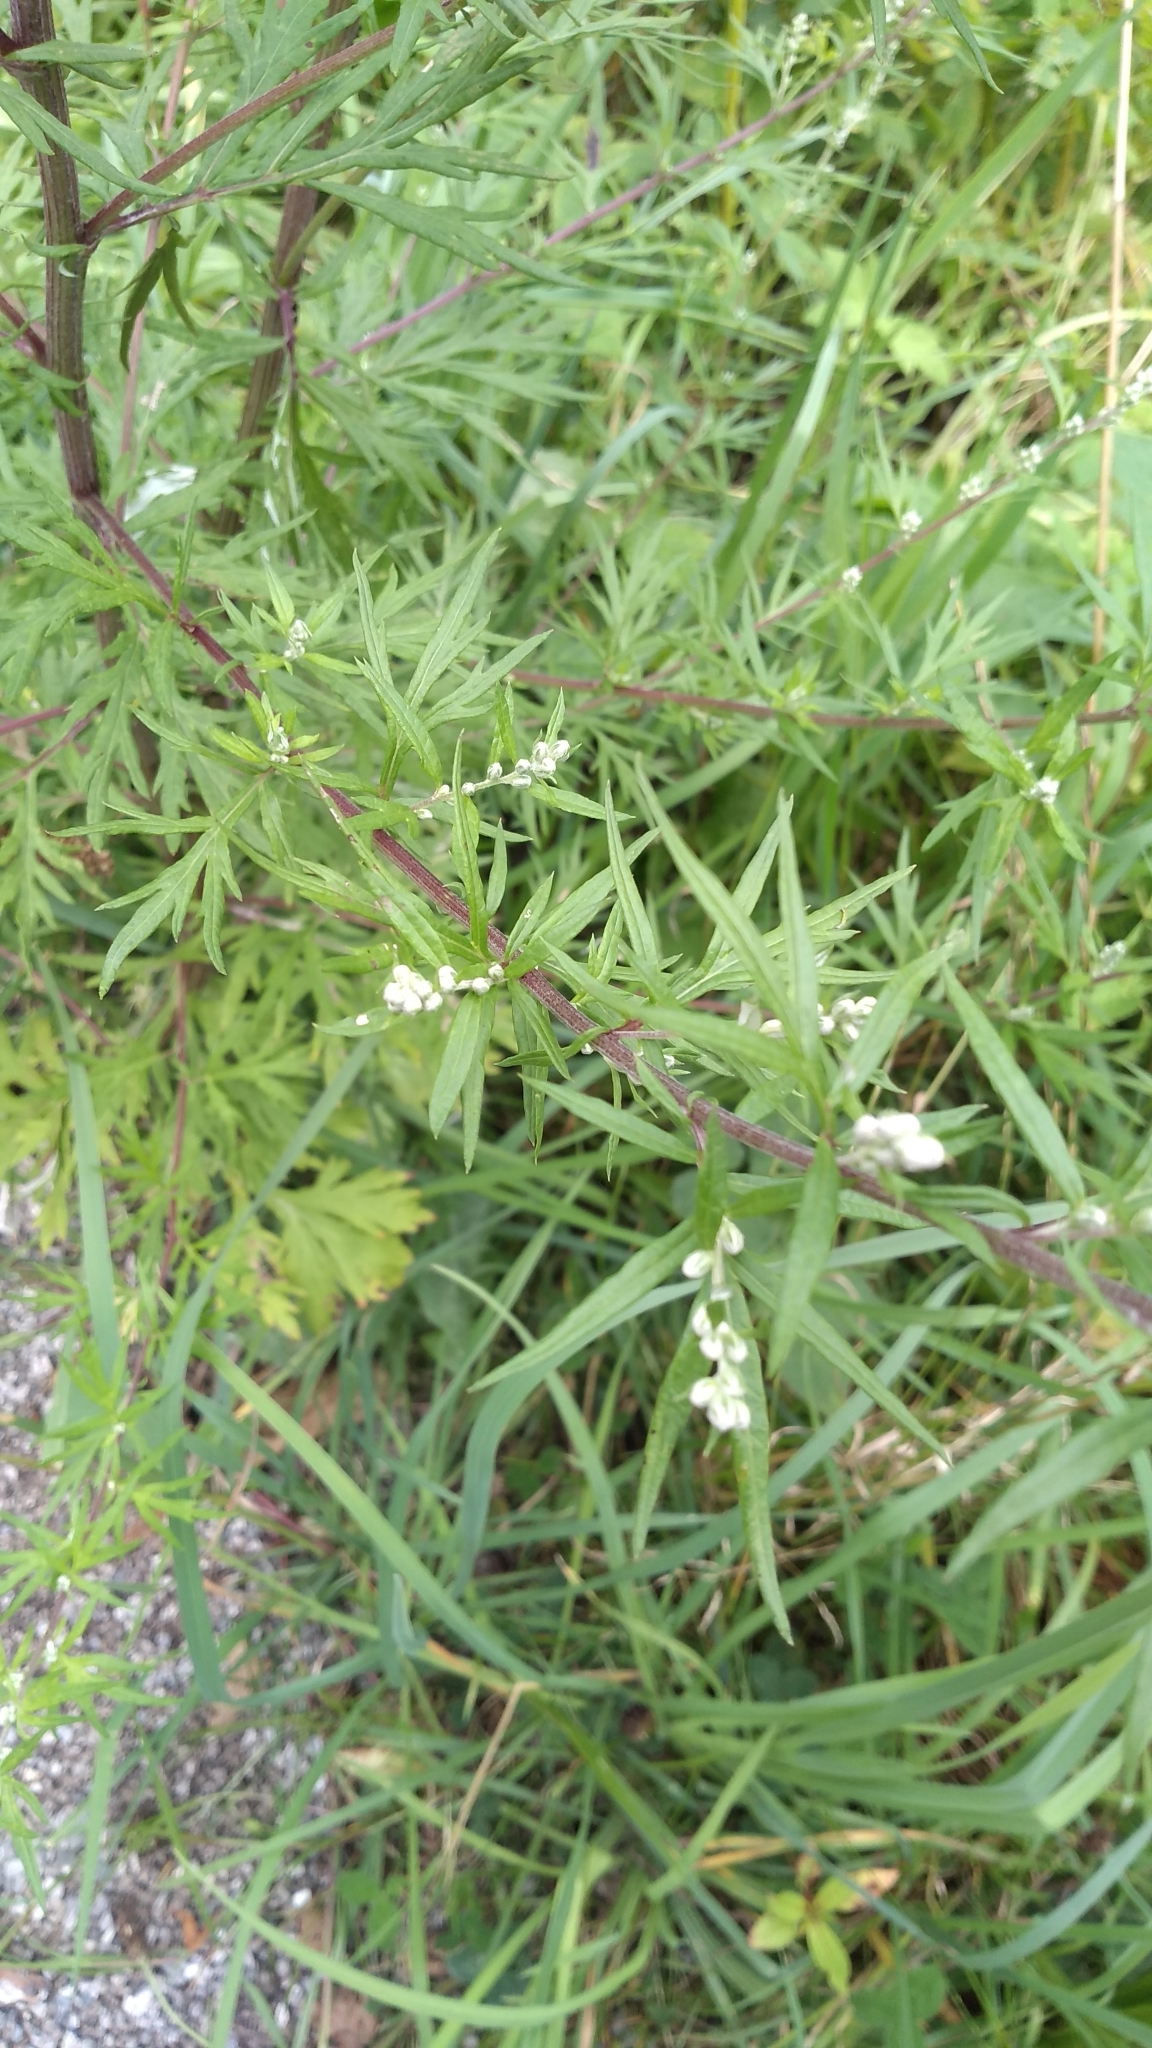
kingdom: Plantae
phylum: Tracheophyta
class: Magnoliopsida
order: Asterales
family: Asteraceae
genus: Artemisia
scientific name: Artemisia vulgaris
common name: Mugwort
